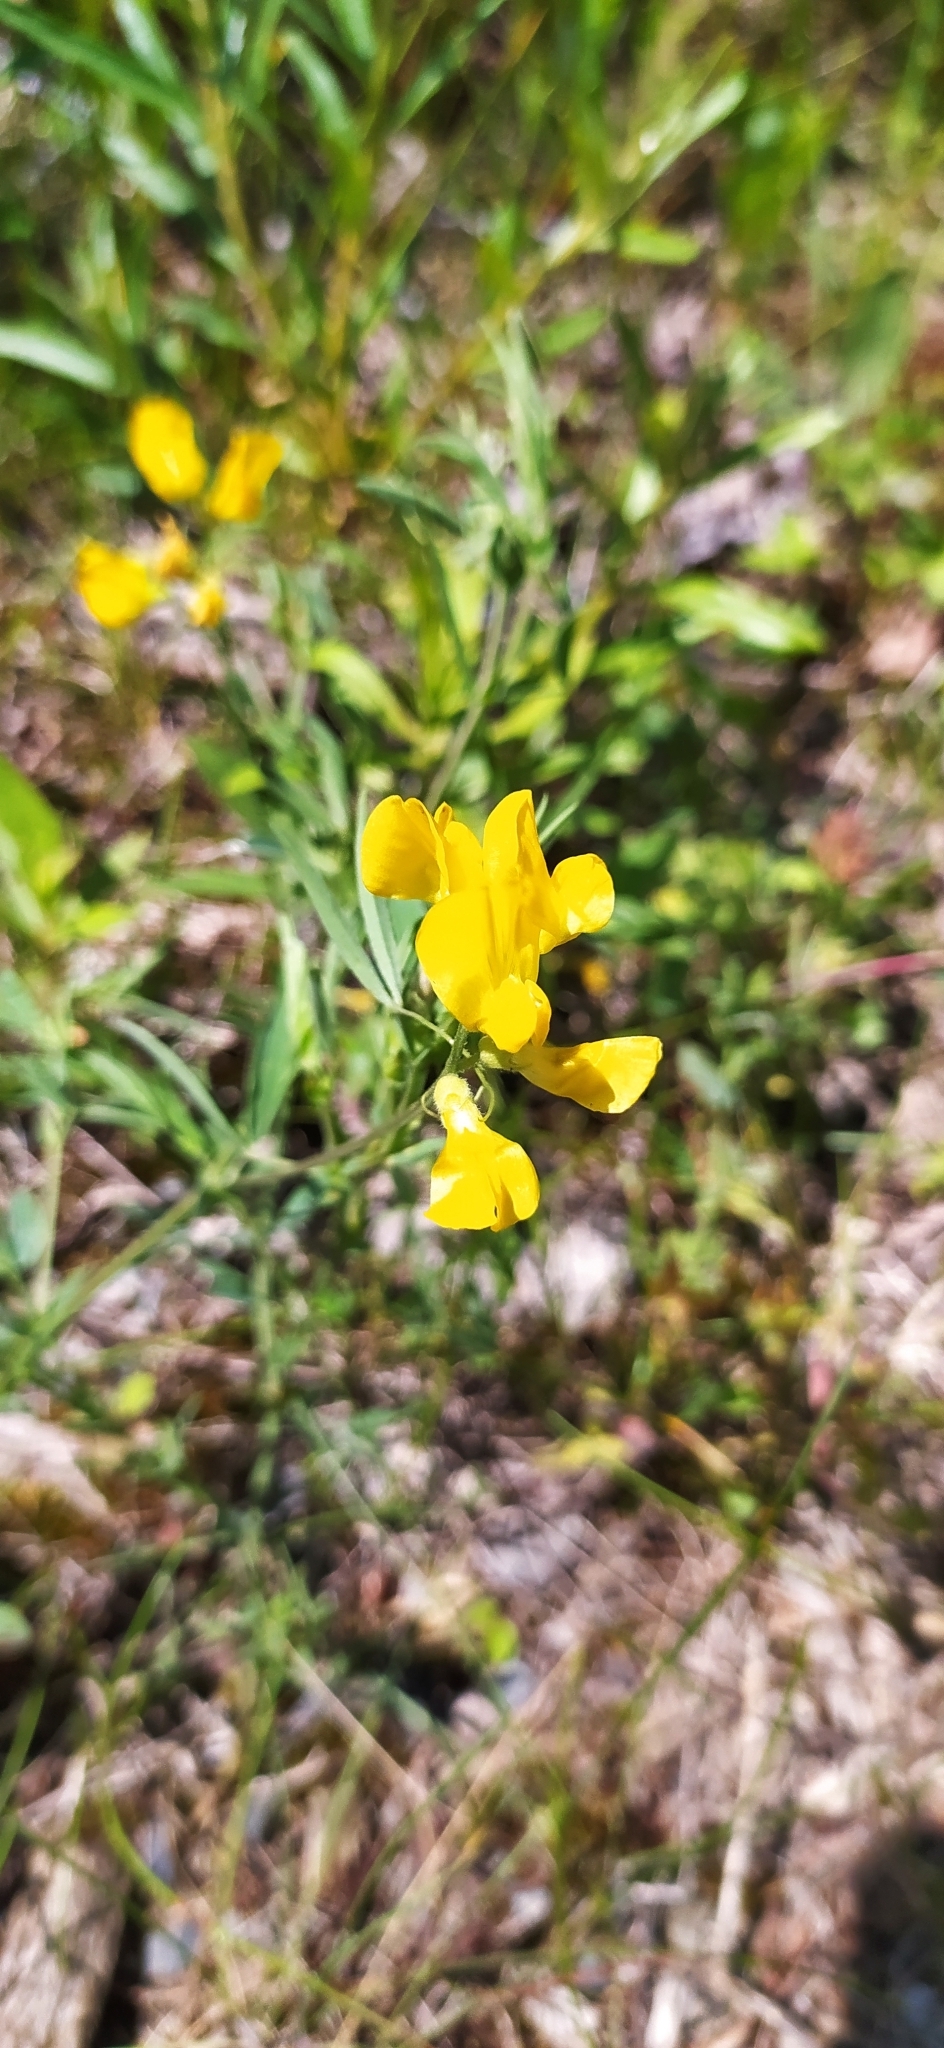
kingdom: Plantae
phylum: Tracheophyta
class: Magnoliopsida
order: Fabales
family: Fabaceae
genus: Lathyrus
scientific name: Lathyrus pratensis
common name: Meadow vetchling
